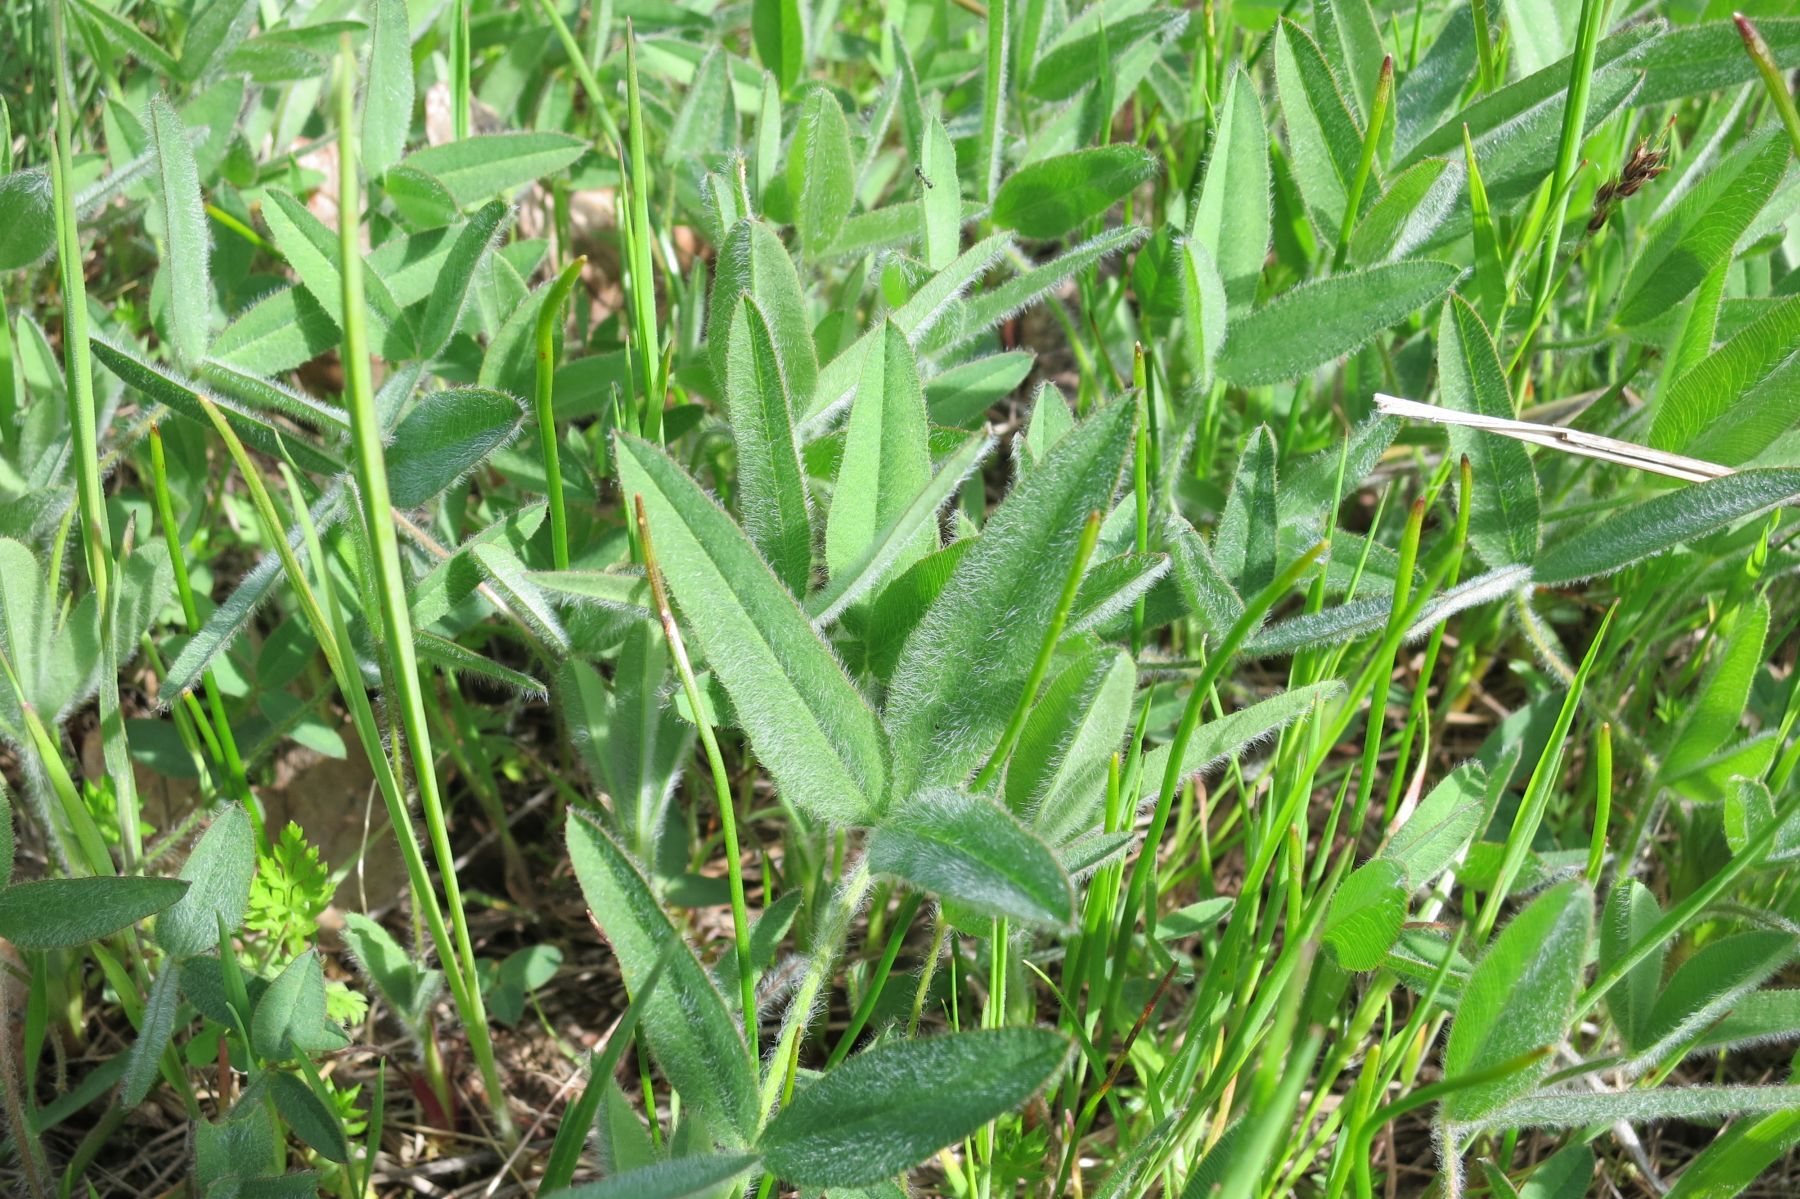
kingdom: Plantae
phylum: Tracheophyta
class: Magnoliopsida
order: Fabales
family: Fabaceae
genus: Trifolium
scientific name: Trifolium eriocephalum
